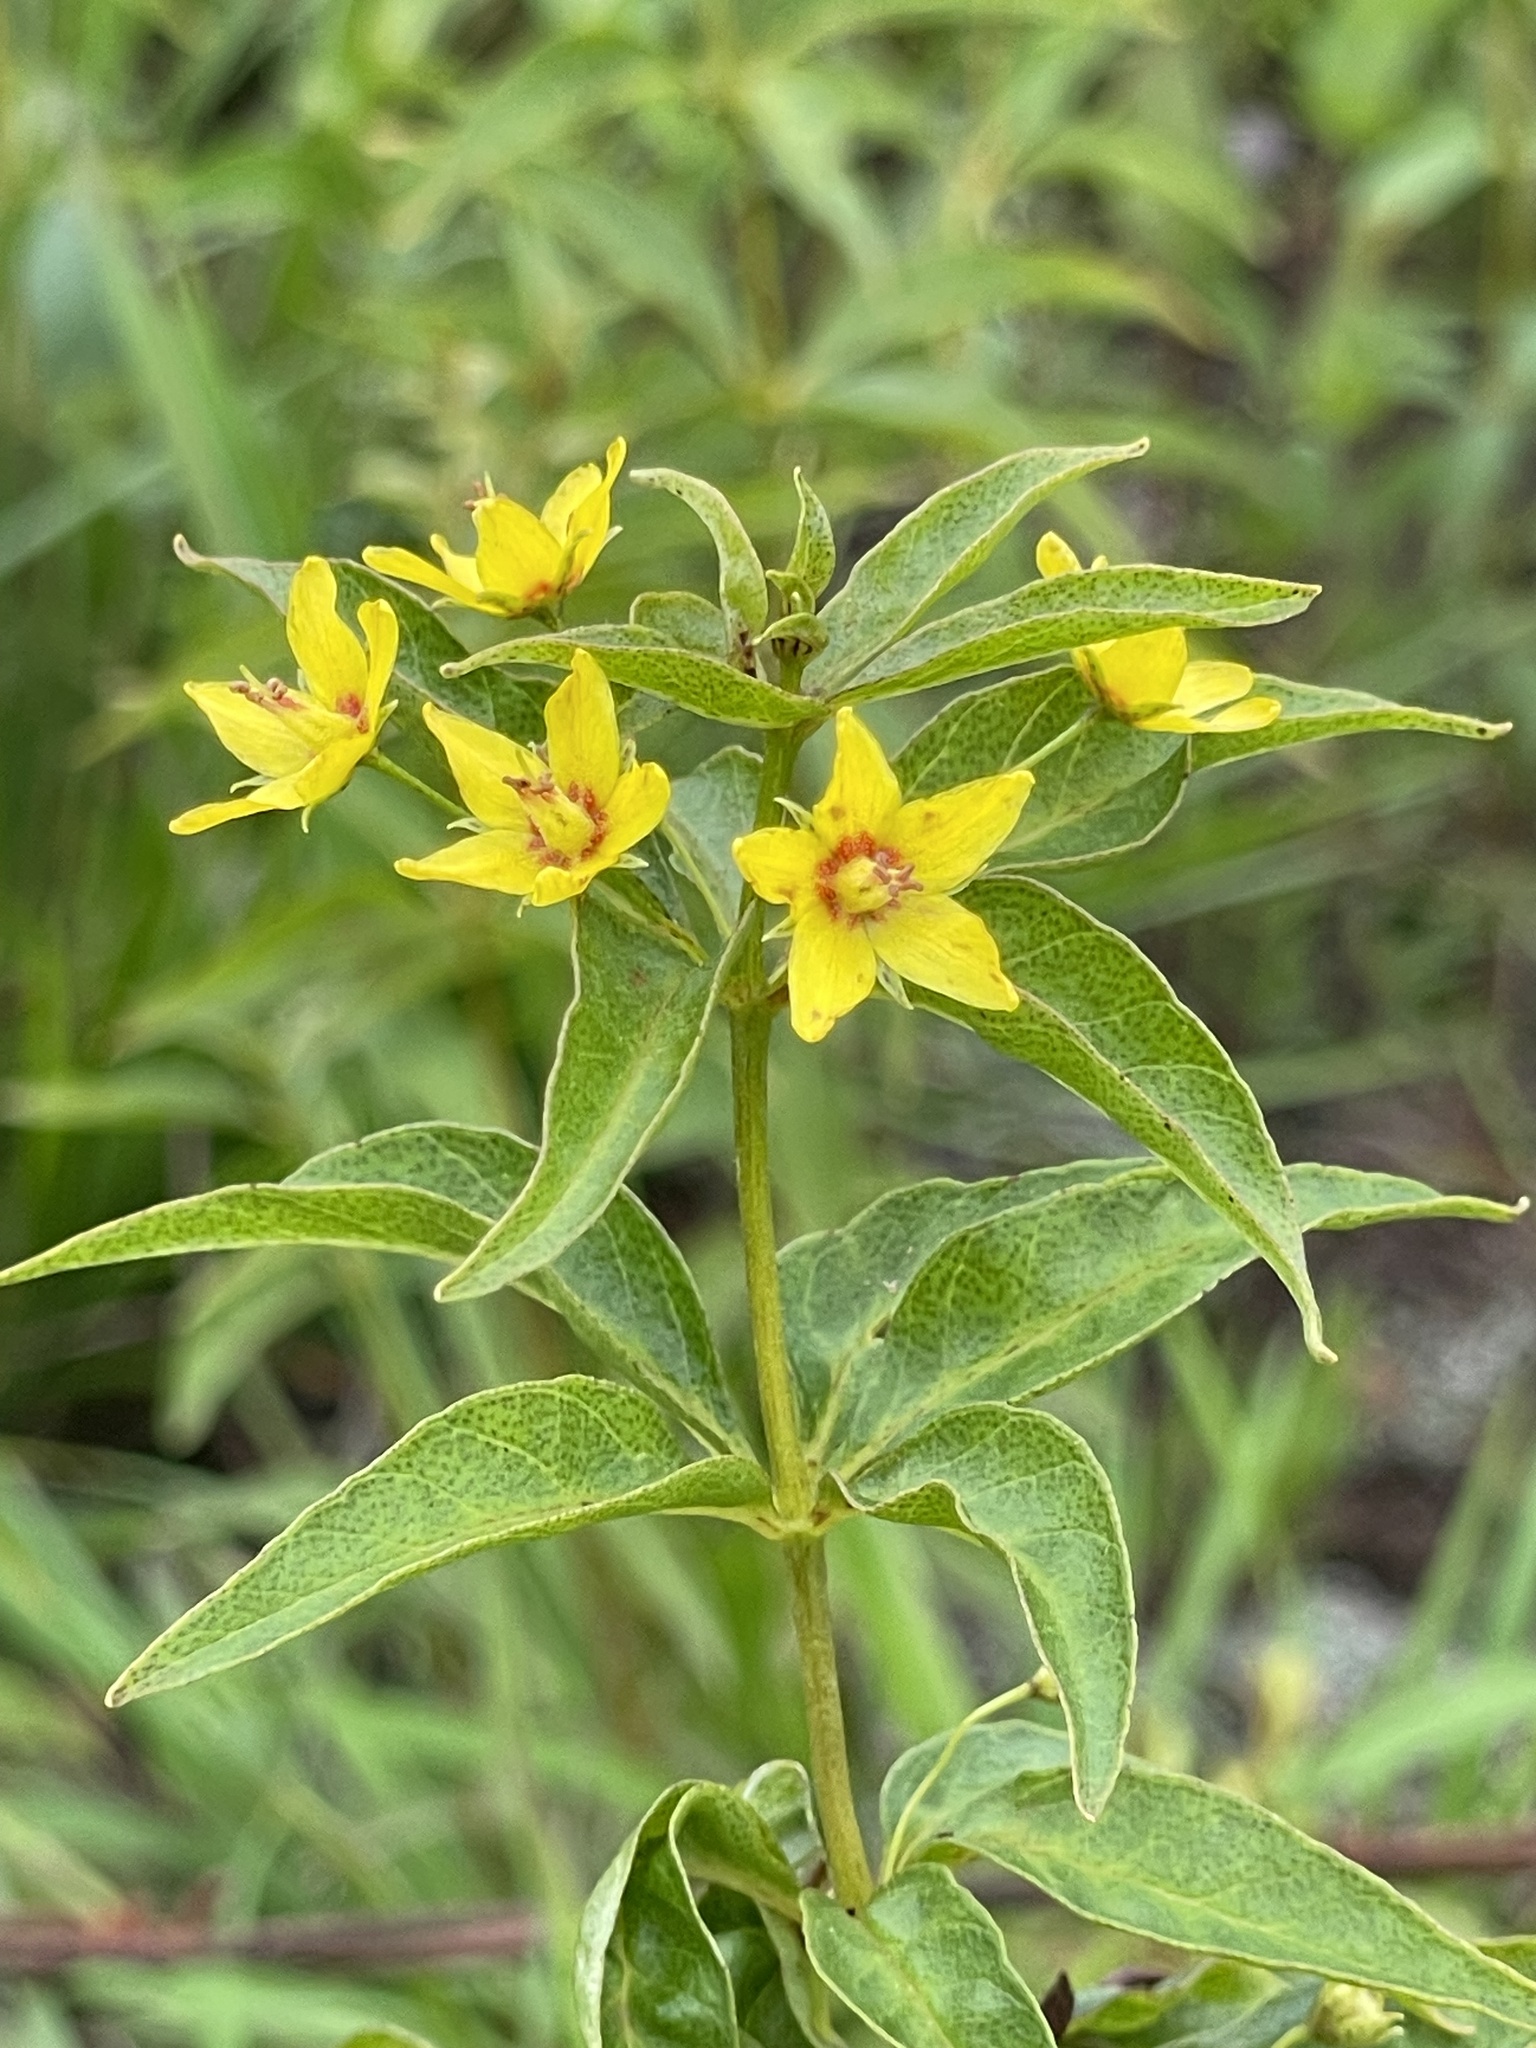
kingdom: Plantae
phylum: Tracheophyta
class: Magnoliopsida
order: Ericales
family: Primulaceae
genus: Lysimachia
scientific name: Lysimachia quadrifolia
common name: Whorled loosestrife
